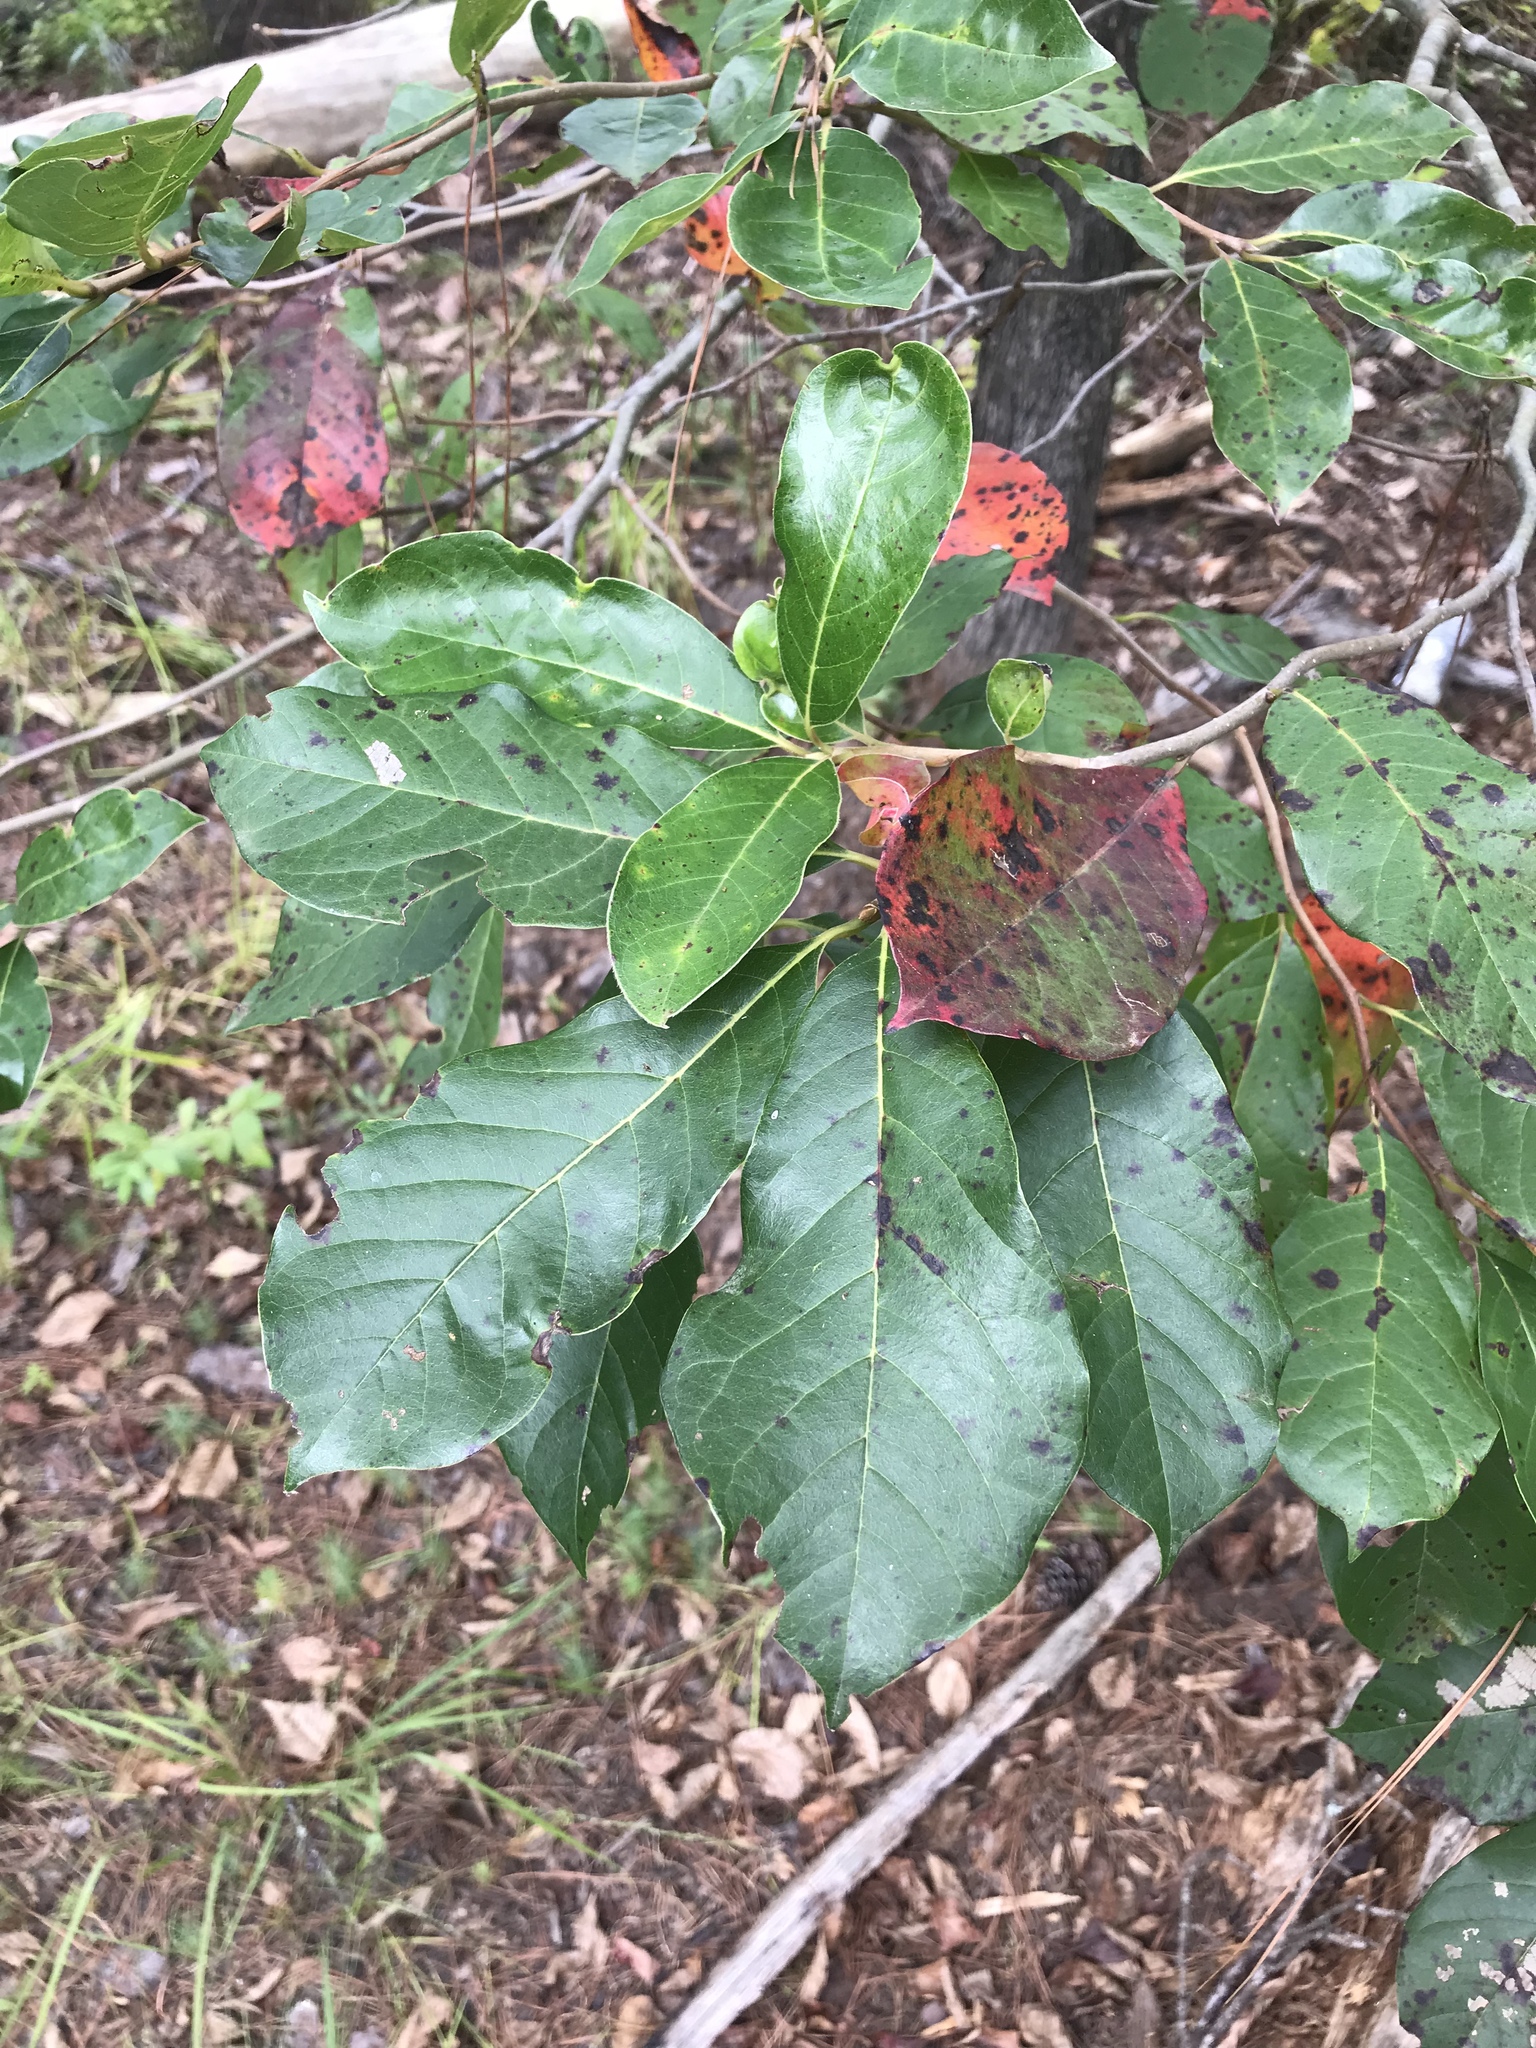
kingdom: Plantae
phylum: Tracheophyta
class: Magnoliopsida
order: Cornales
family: Nyssaceae
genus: Nyssa
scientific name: Nyssa sylvatica
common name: Black tupelo
